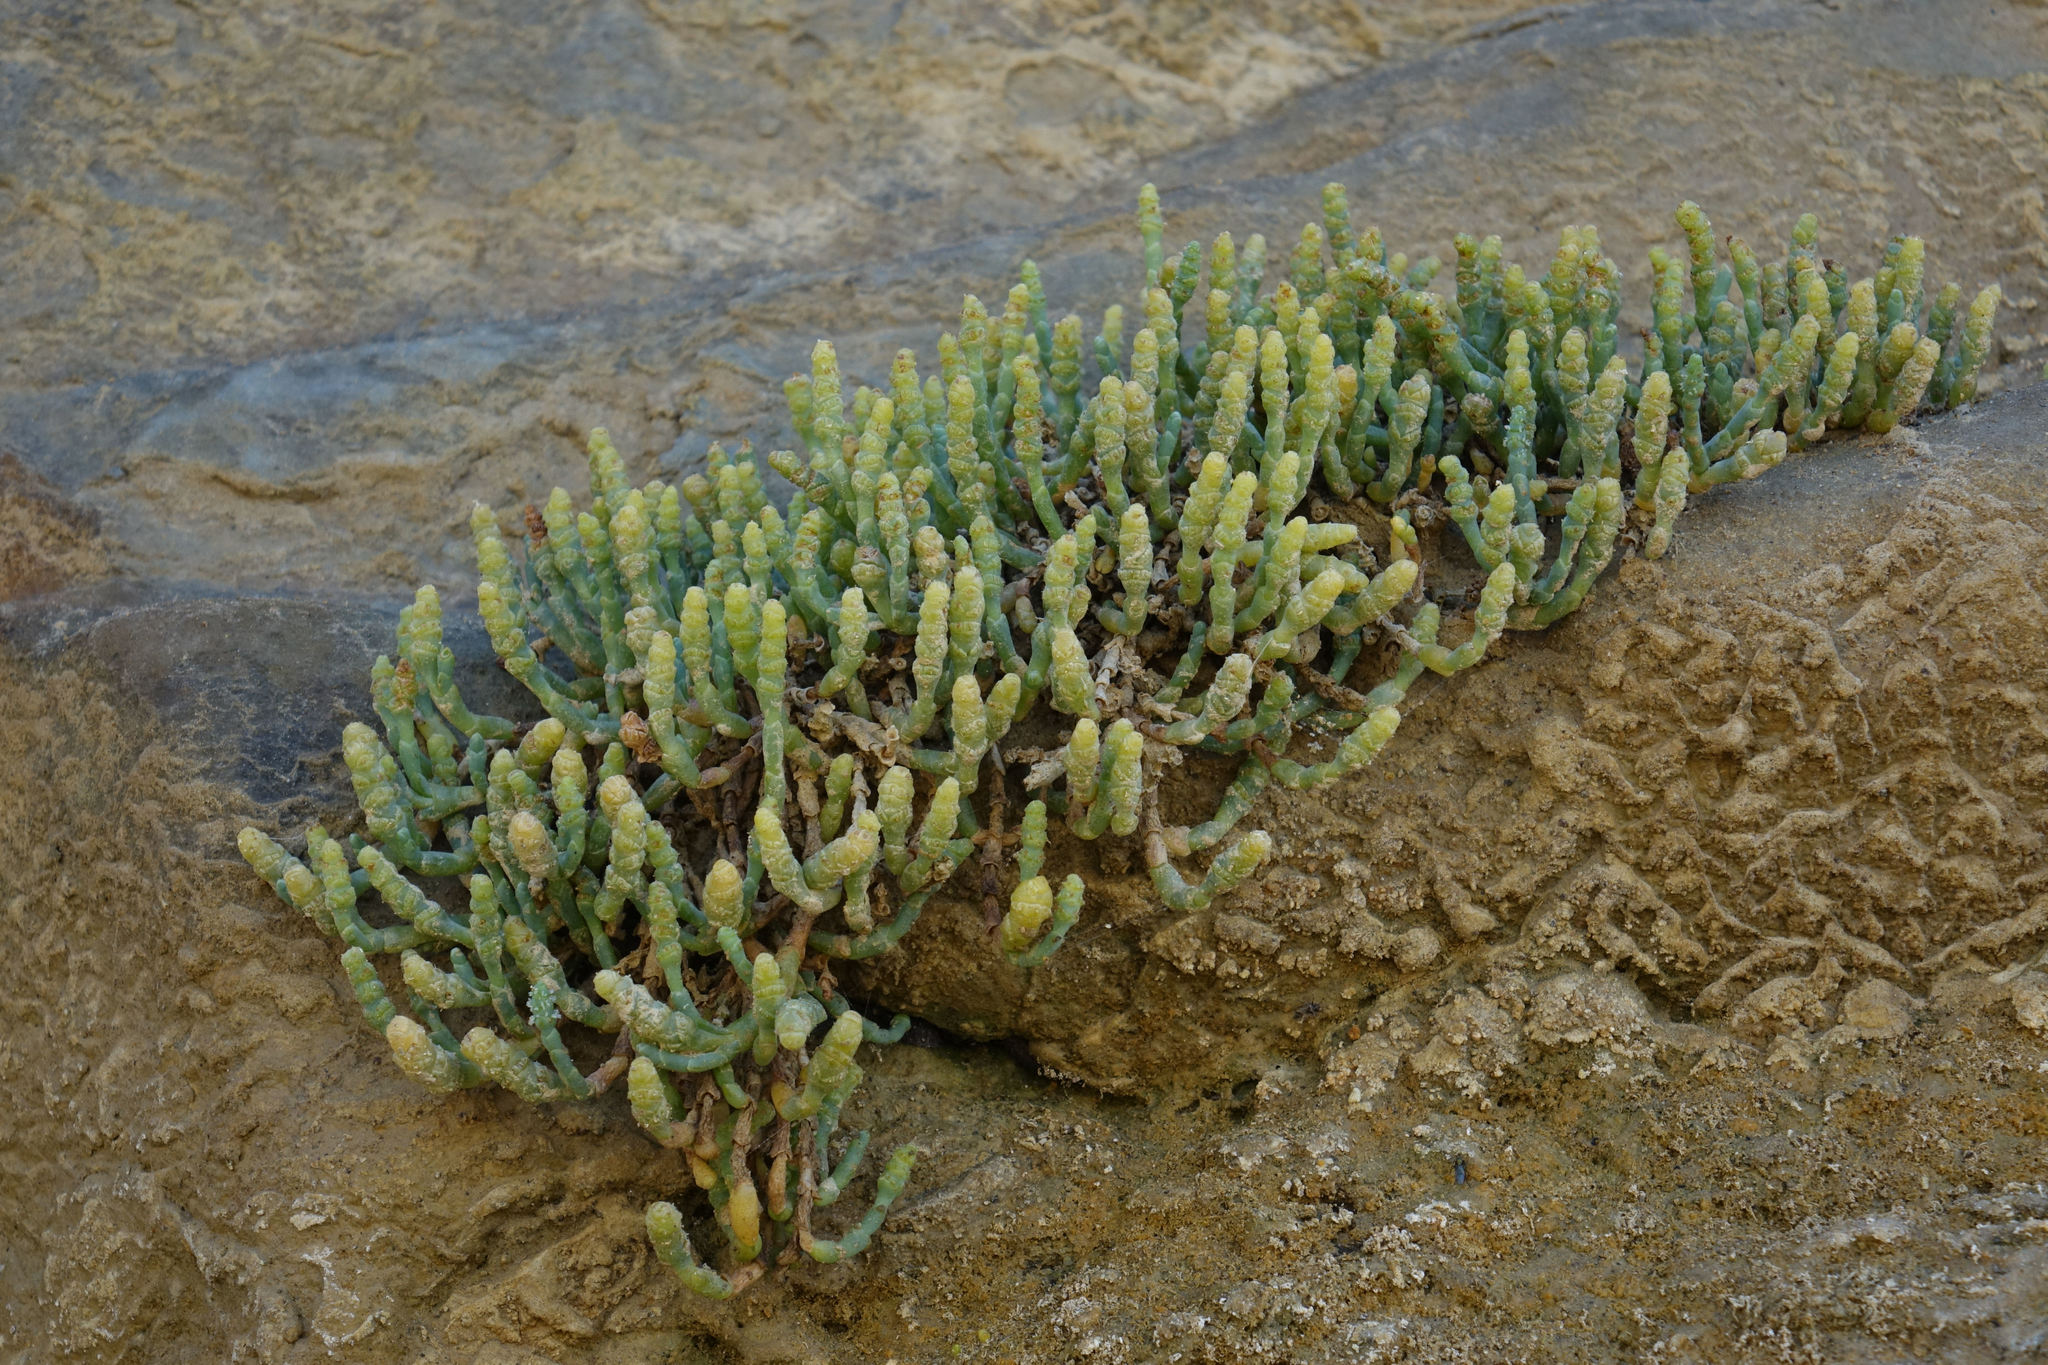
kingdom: Plantae
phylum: Tracheophyta
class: Magnoliopsida
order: Caryophyllales
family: Amaranthaceae
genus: Salicornia
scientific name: Salicornia quinqueflora
